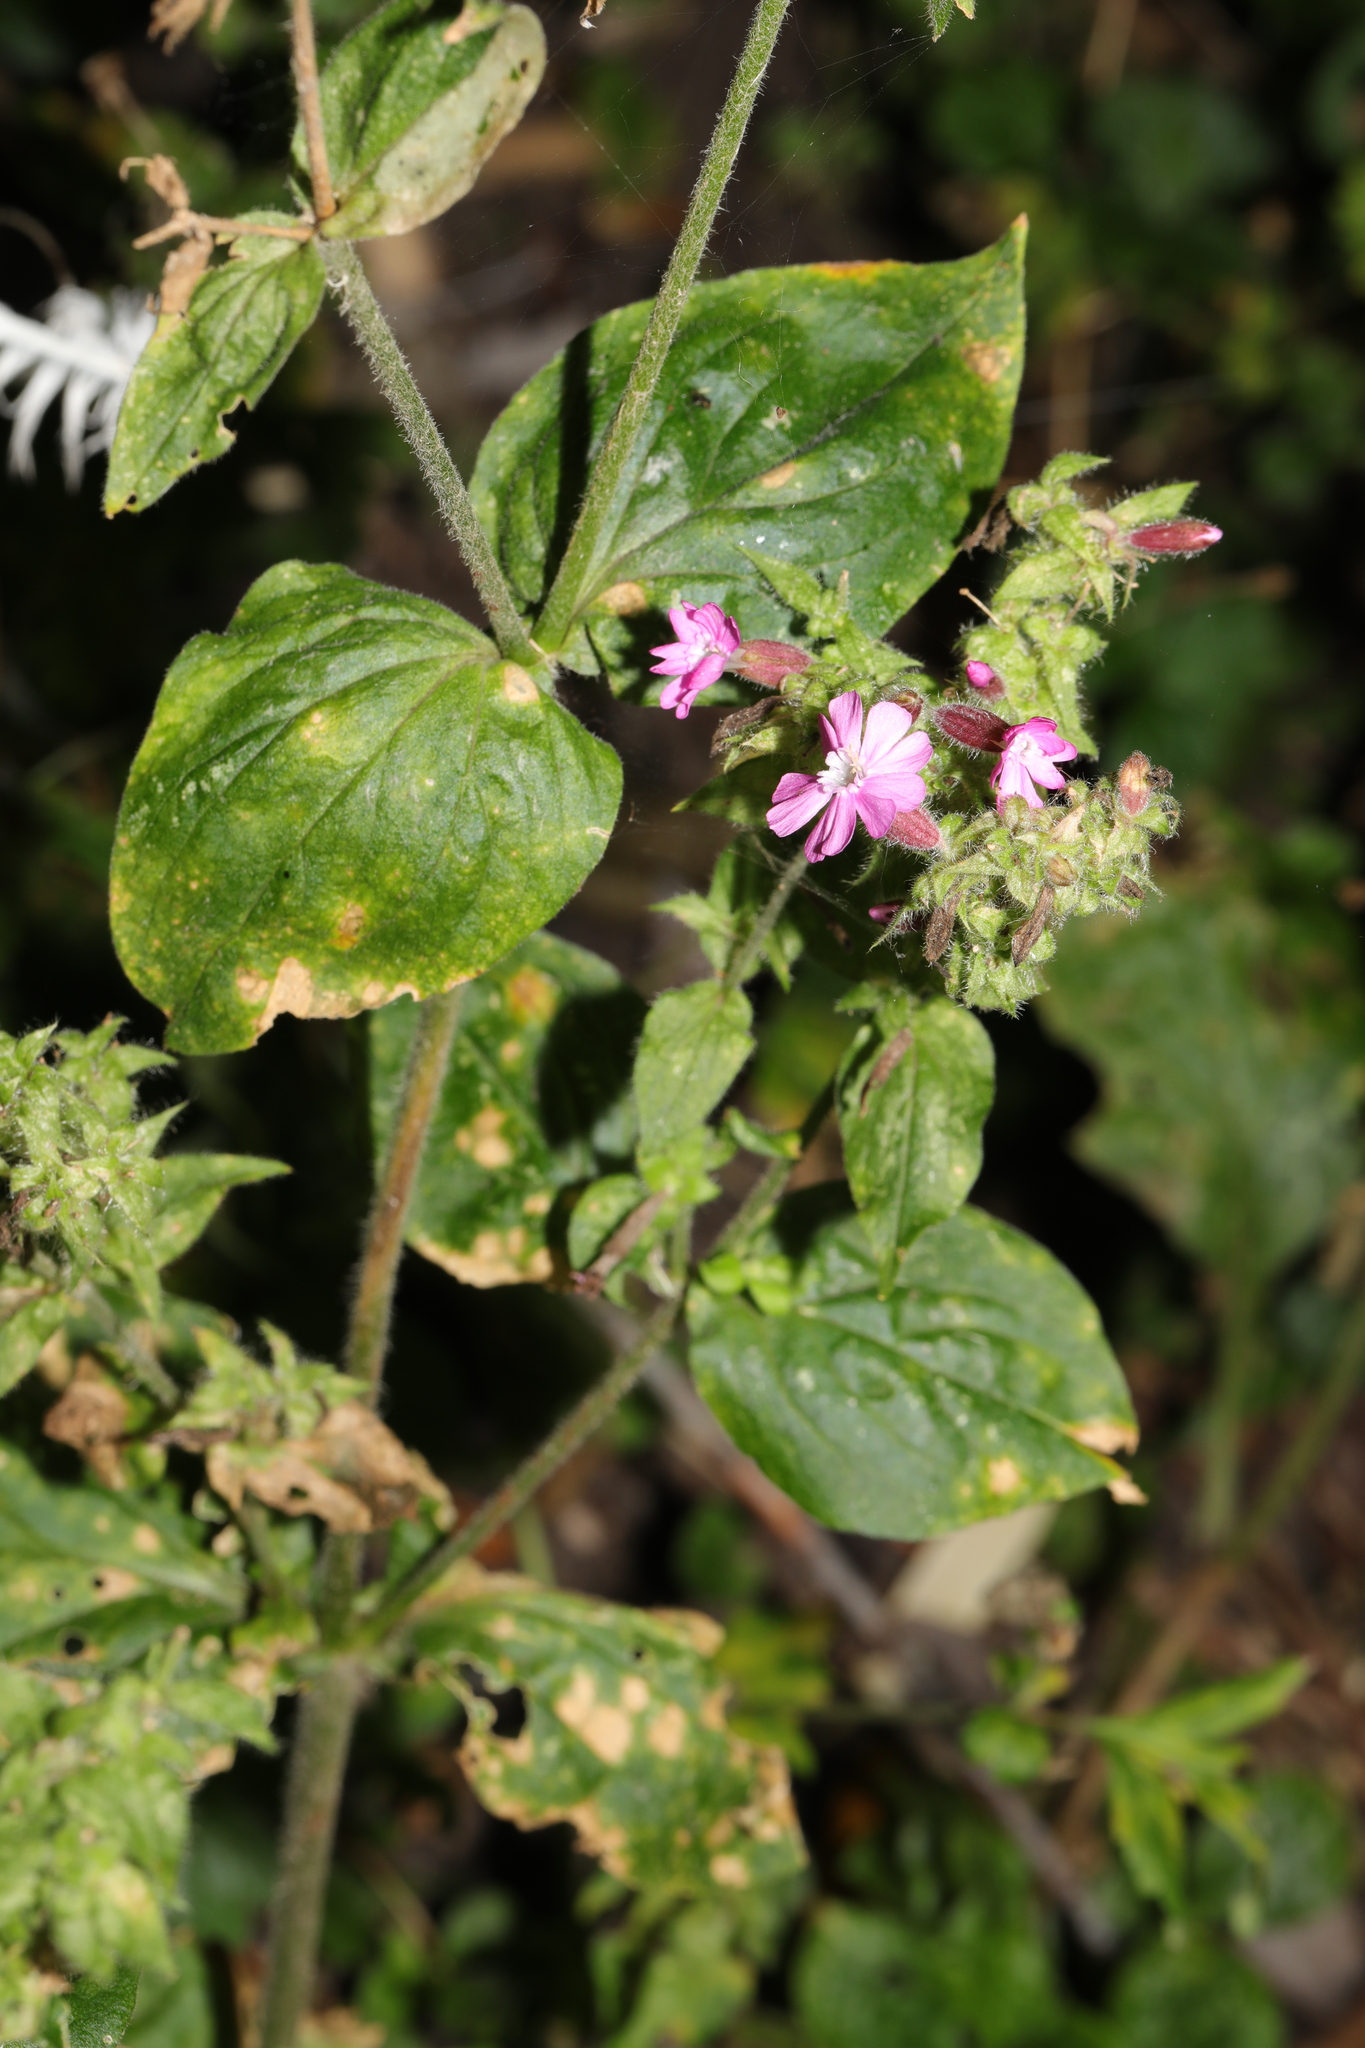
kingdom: Plantae
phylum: Tracheophyta
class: Magnoliopsida
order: Caryophyllales
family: Caryophyllaceae
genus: Silene
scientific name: Silene dioica
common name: Red campion
